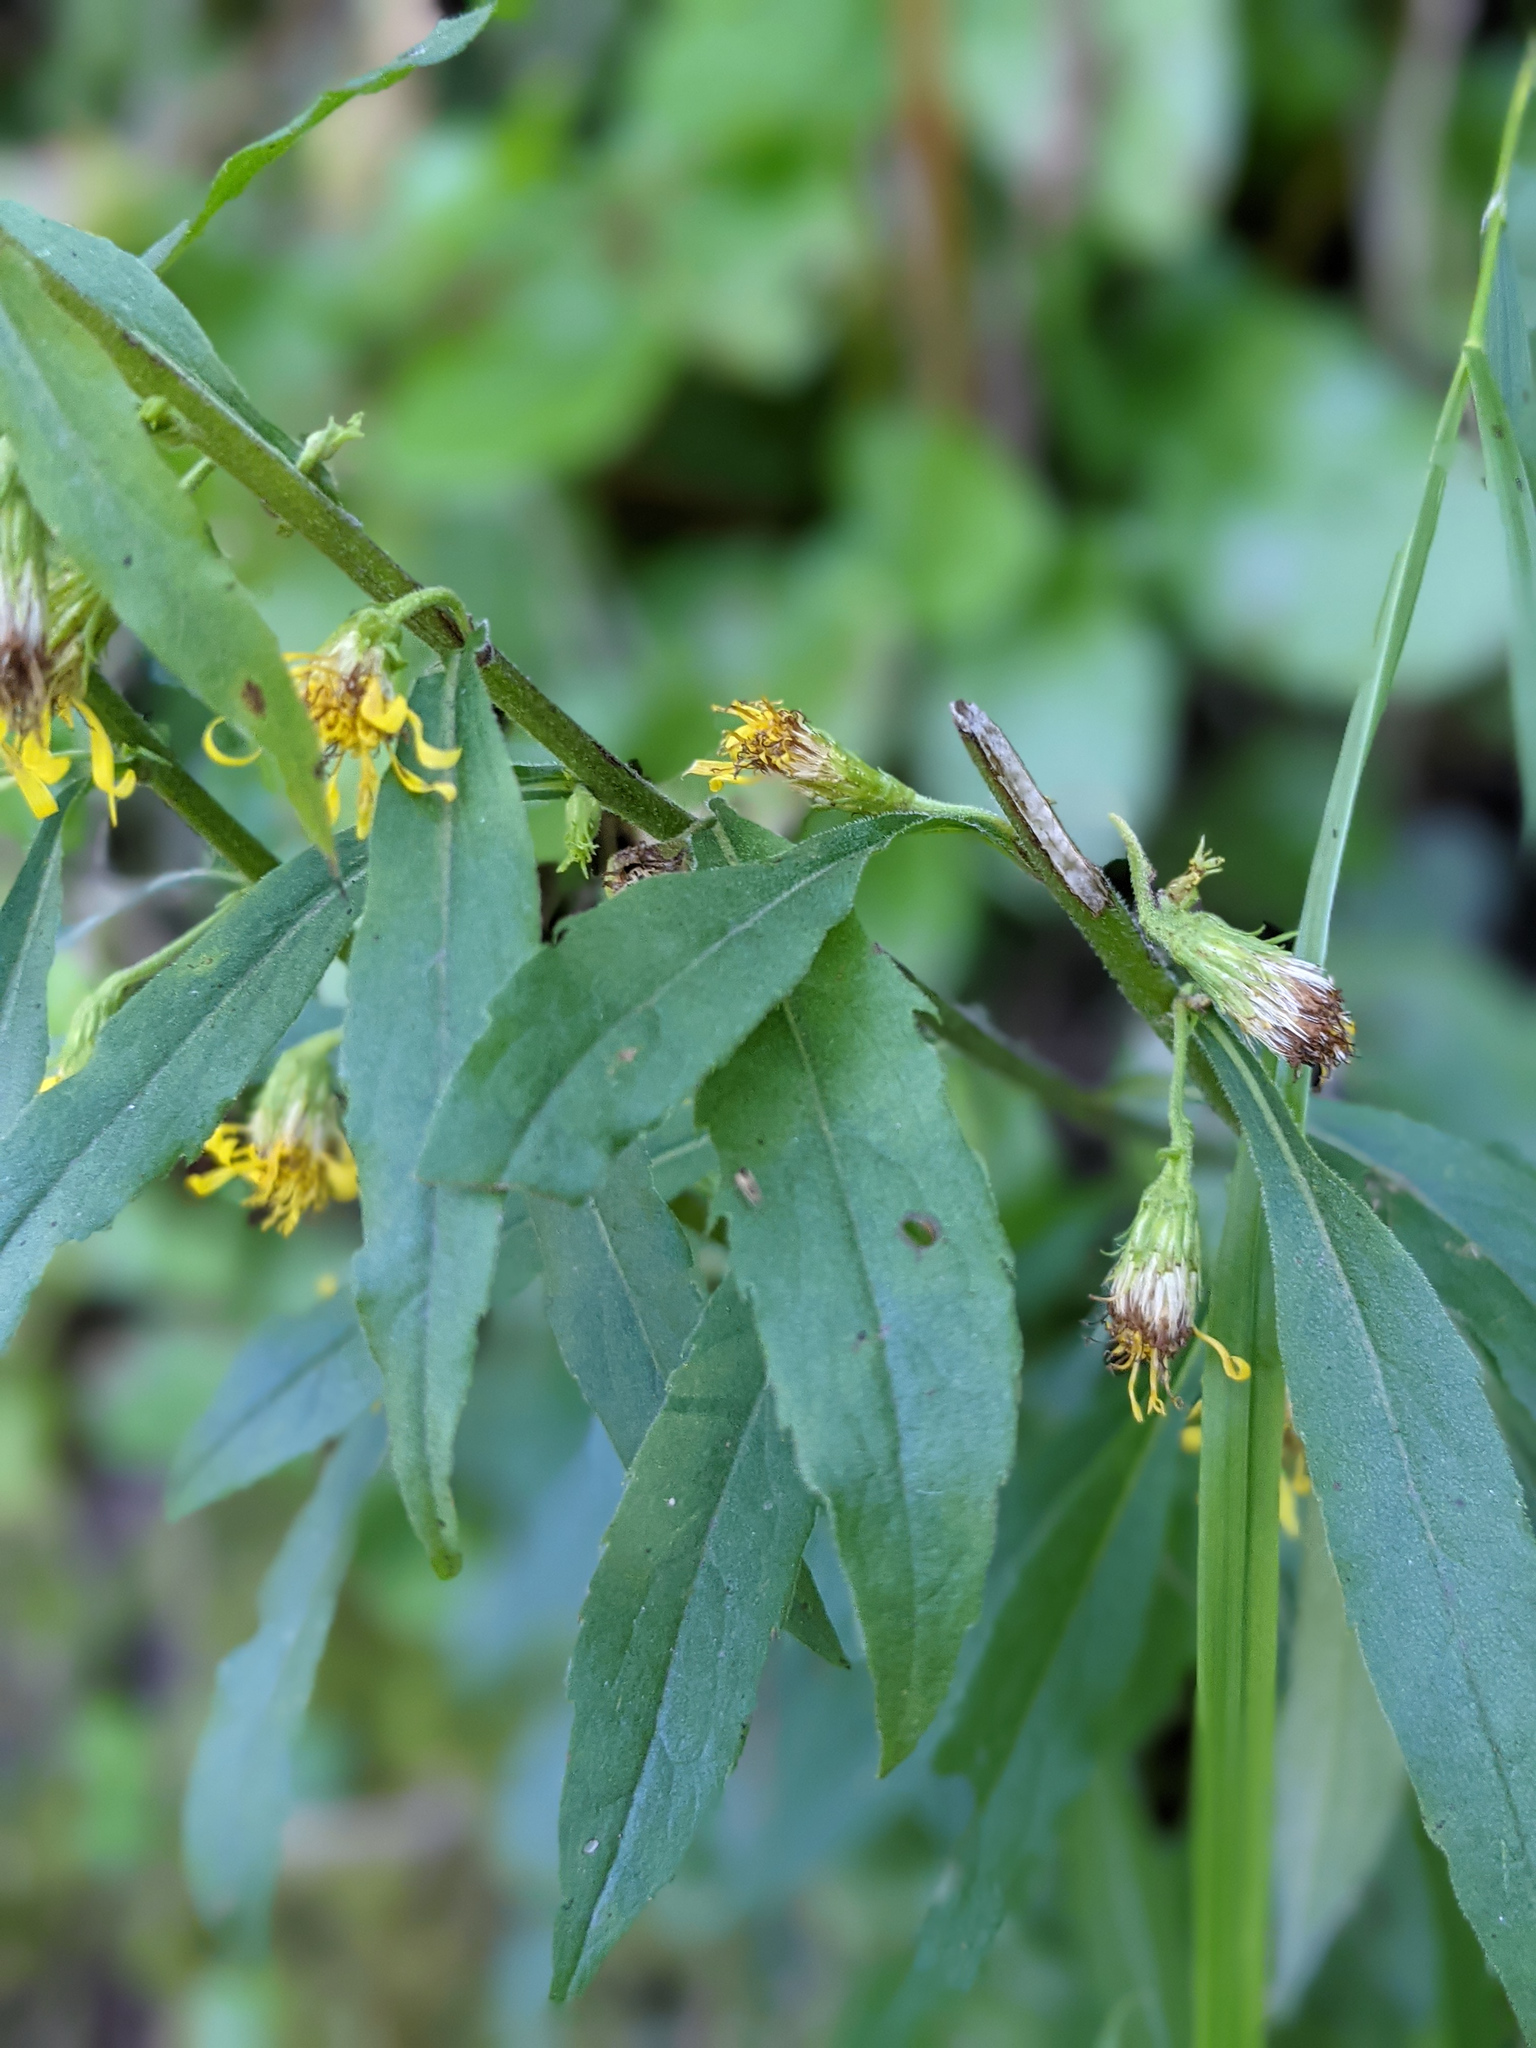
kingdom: Plantae
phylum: Tracheophyta
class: Magnoliopsida
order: Asterales
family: Asteraceae
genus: Solidago
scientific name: Solidago virgaurea
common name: Goldenrod
